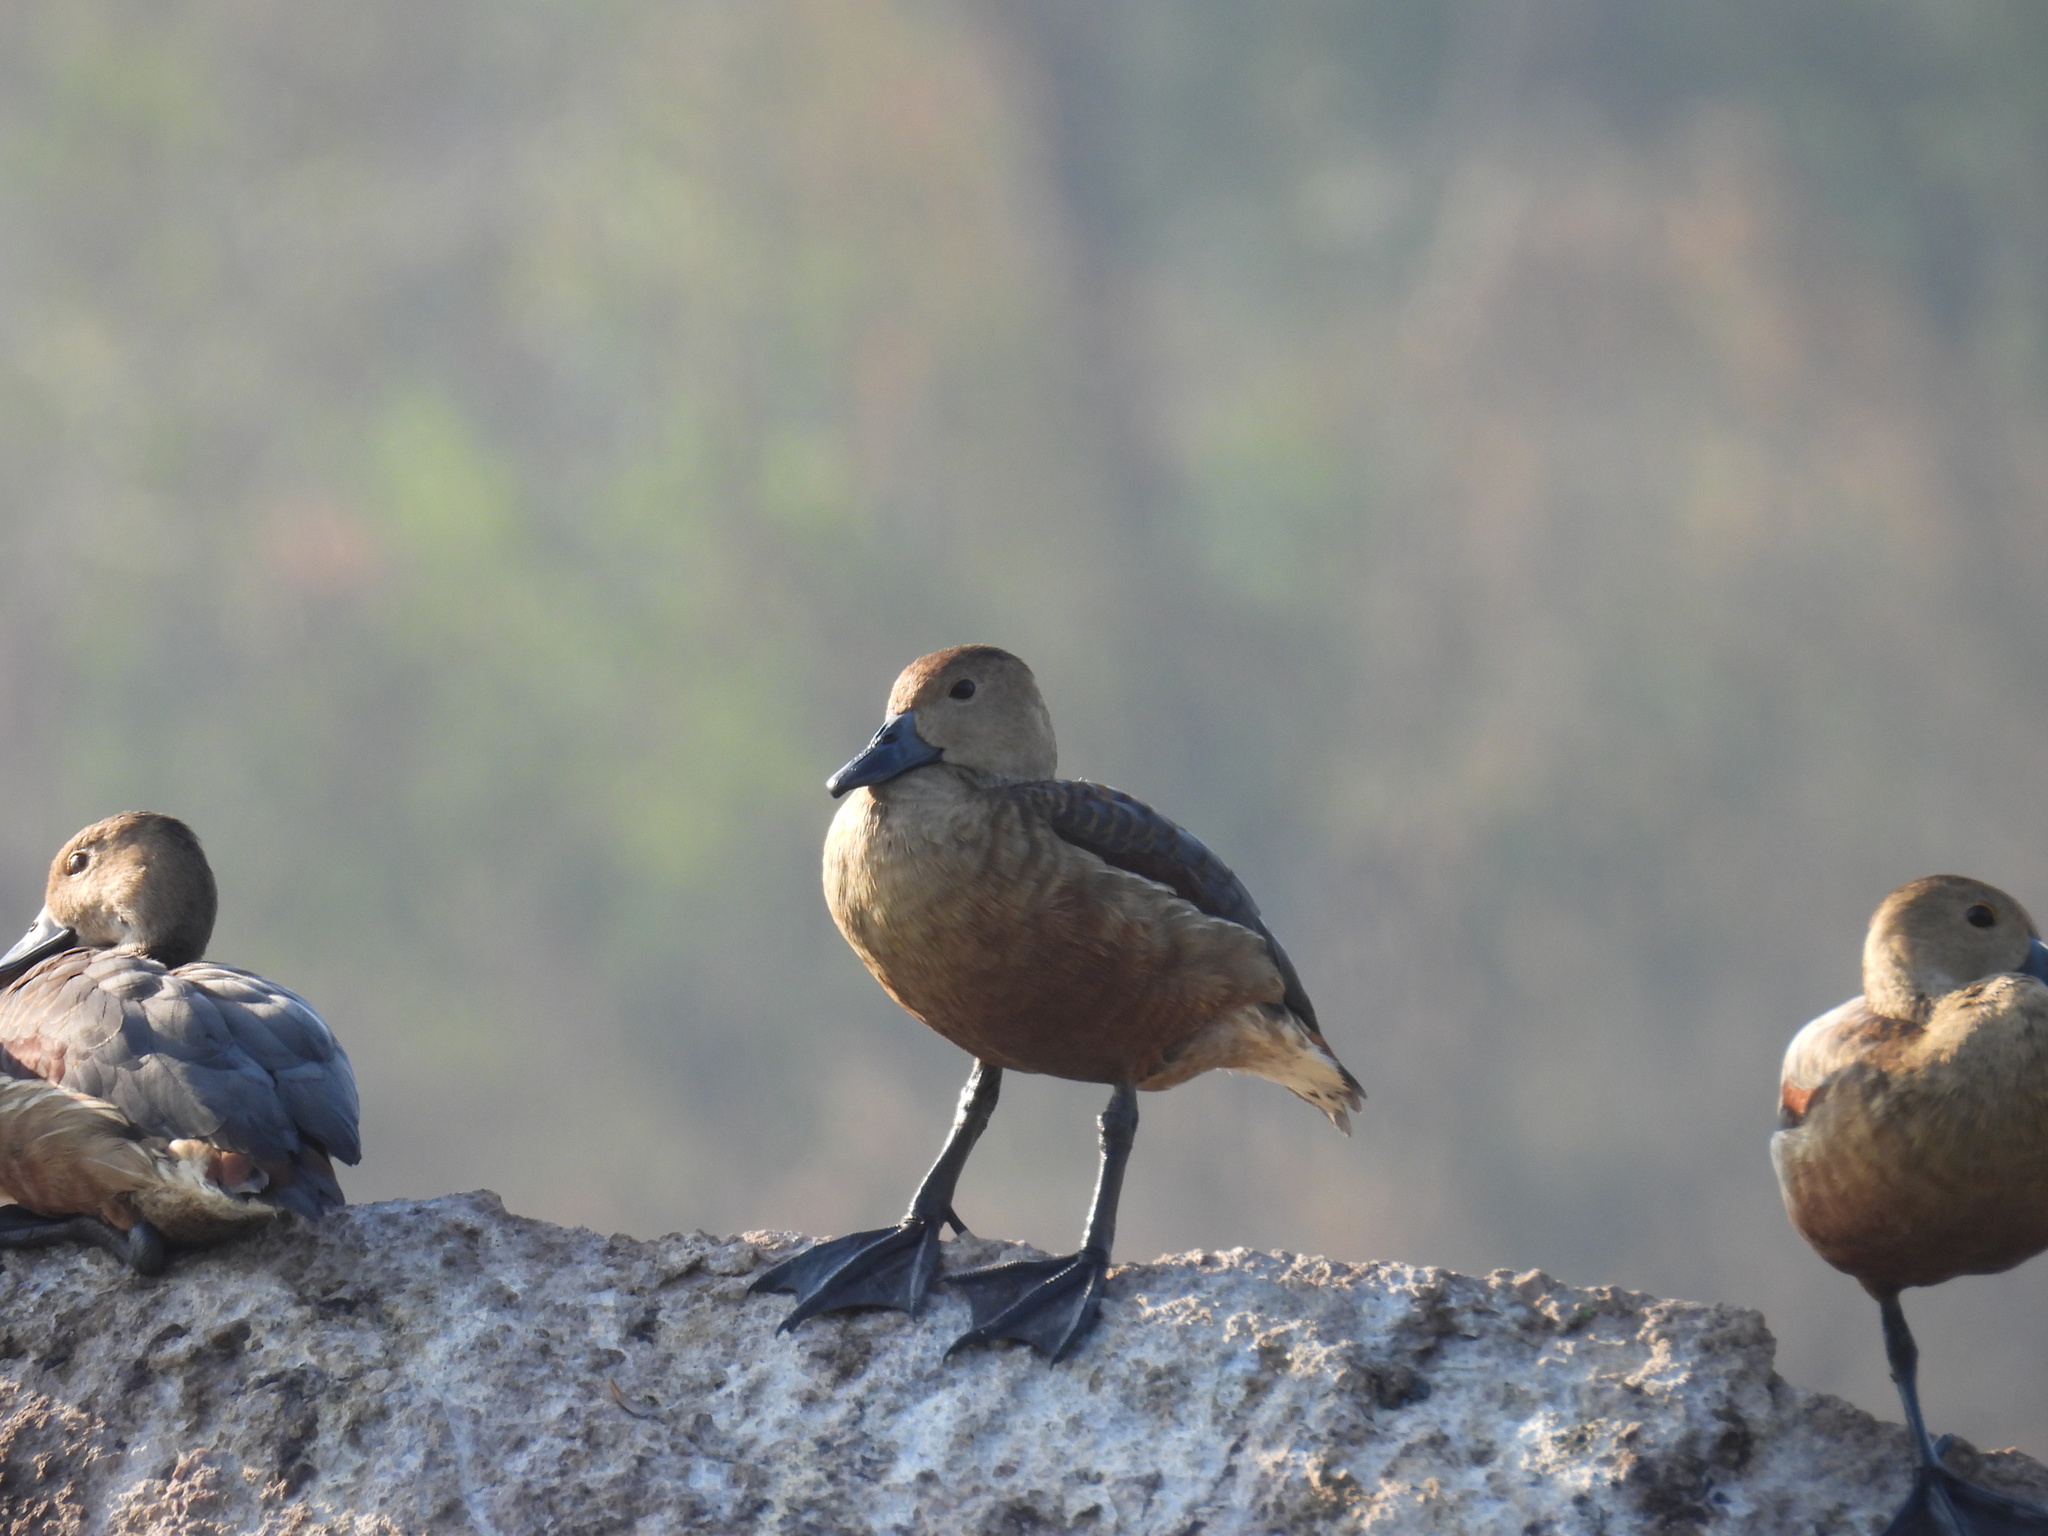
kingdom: Animalia
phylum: Chordata
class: Aves
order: Anseriformes
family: Anatidae
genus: Dendrocygna
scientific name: Dendrocygna javanica
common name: Lesser whistling-duck
